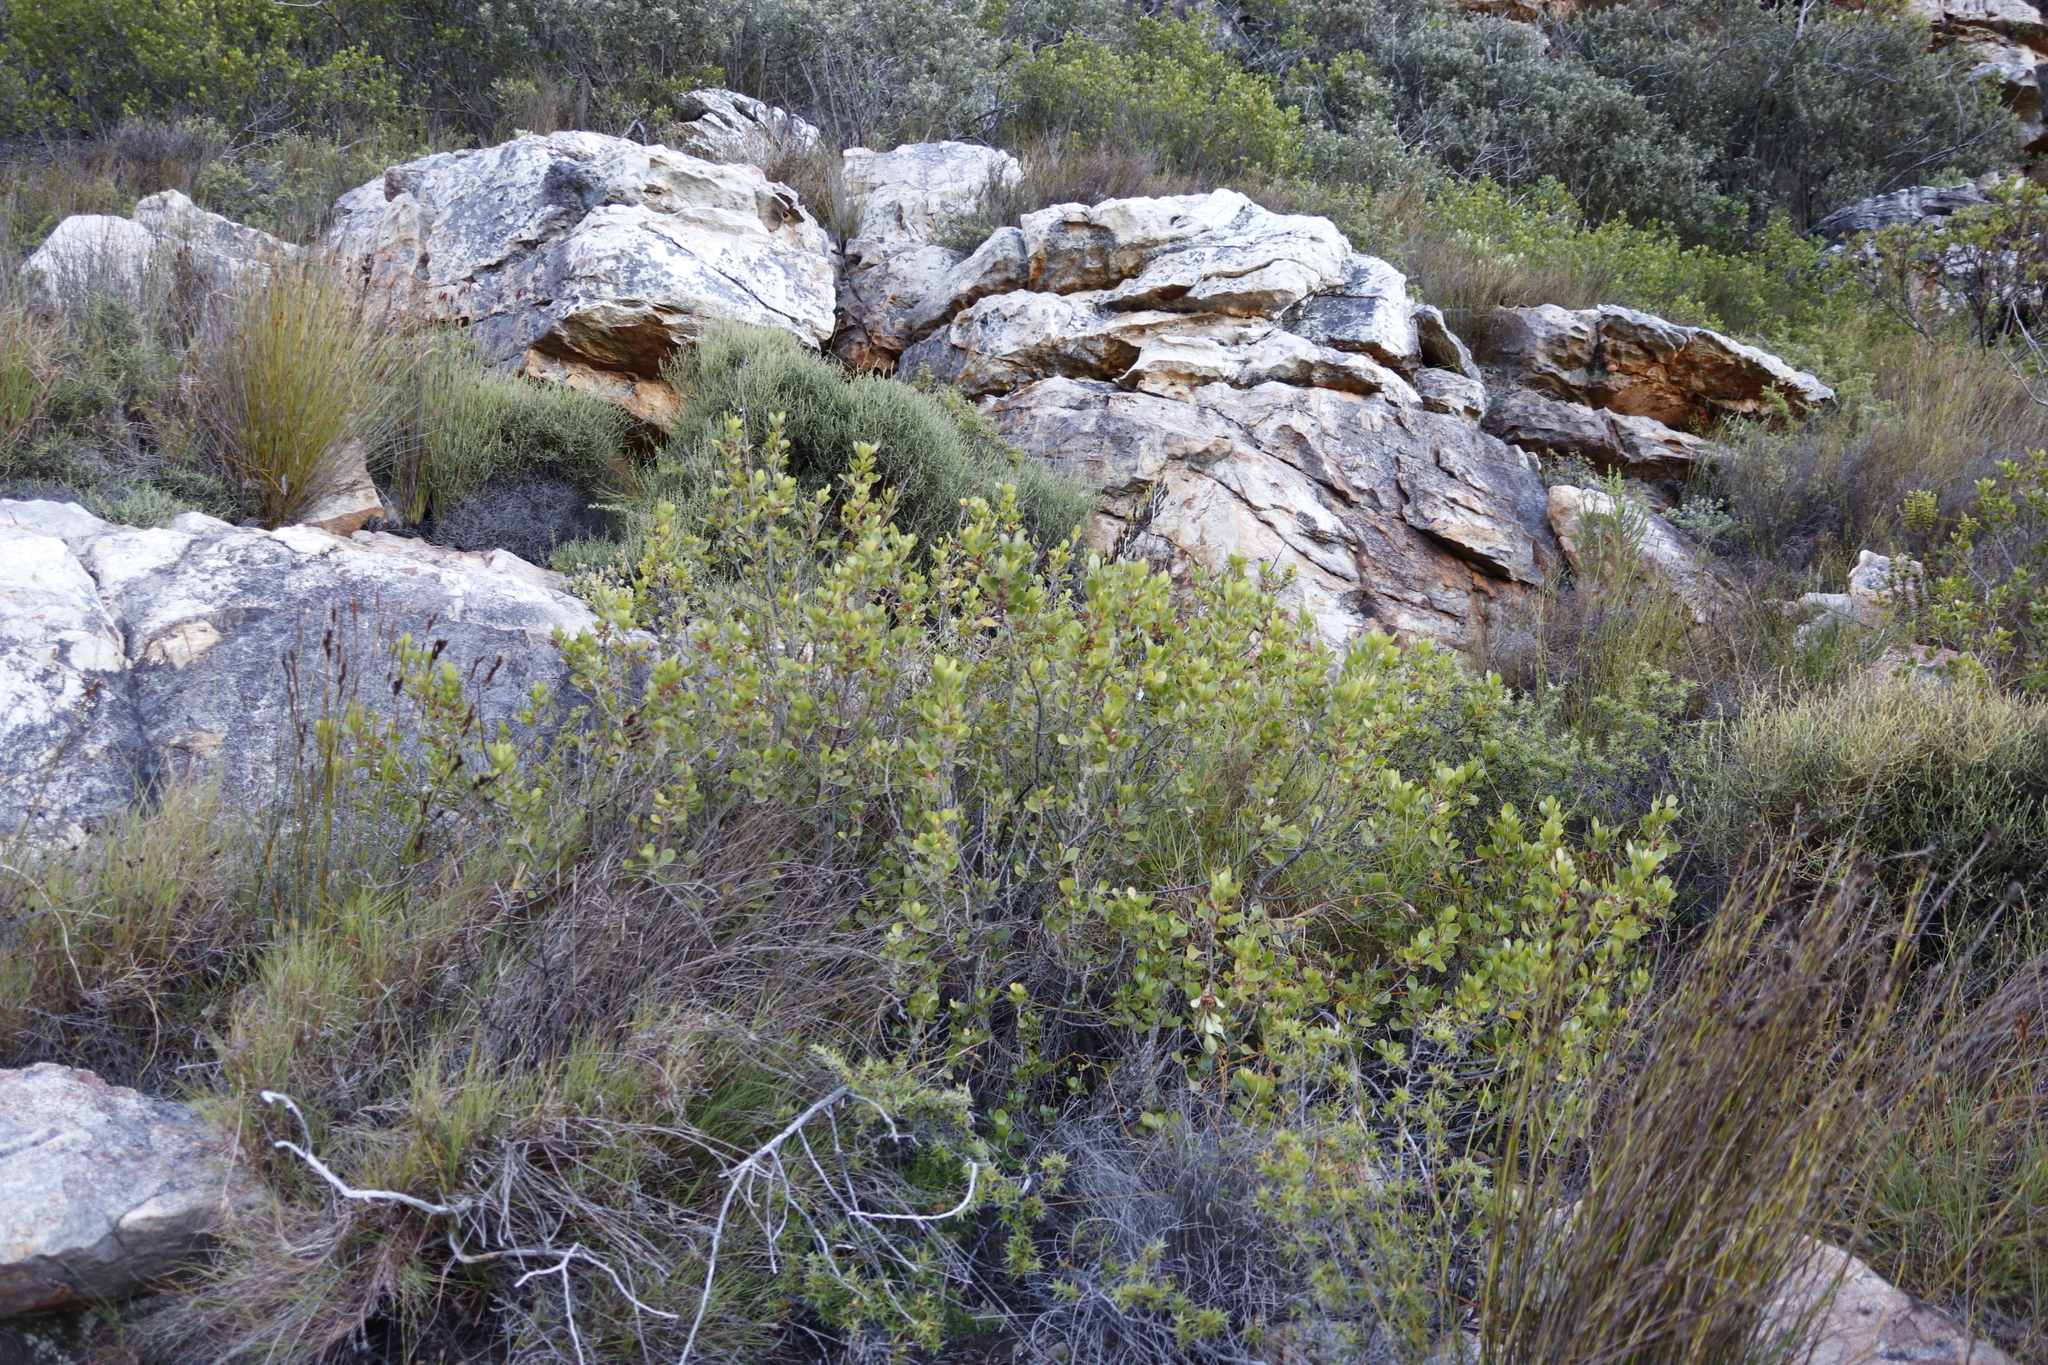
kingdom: Plantae
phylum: Tracheophyta
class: Magnoliopsida
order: Sapindales
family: Anacardiaceae
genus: Searsia
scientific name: Searsia lucida
